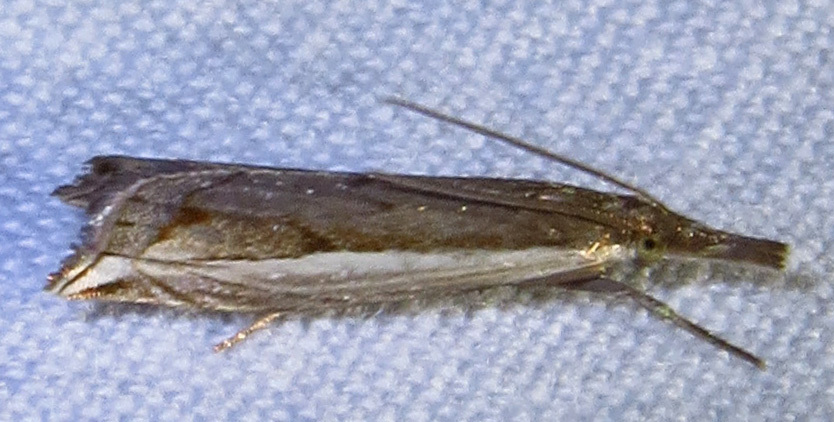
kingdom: Animalia
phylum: Arthropoda
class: Insecta
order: Lepidoptera
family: Crambidae
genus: Raphiptera
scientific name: Raphiptera argillaceellus
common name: Diminutive grass-veneer
